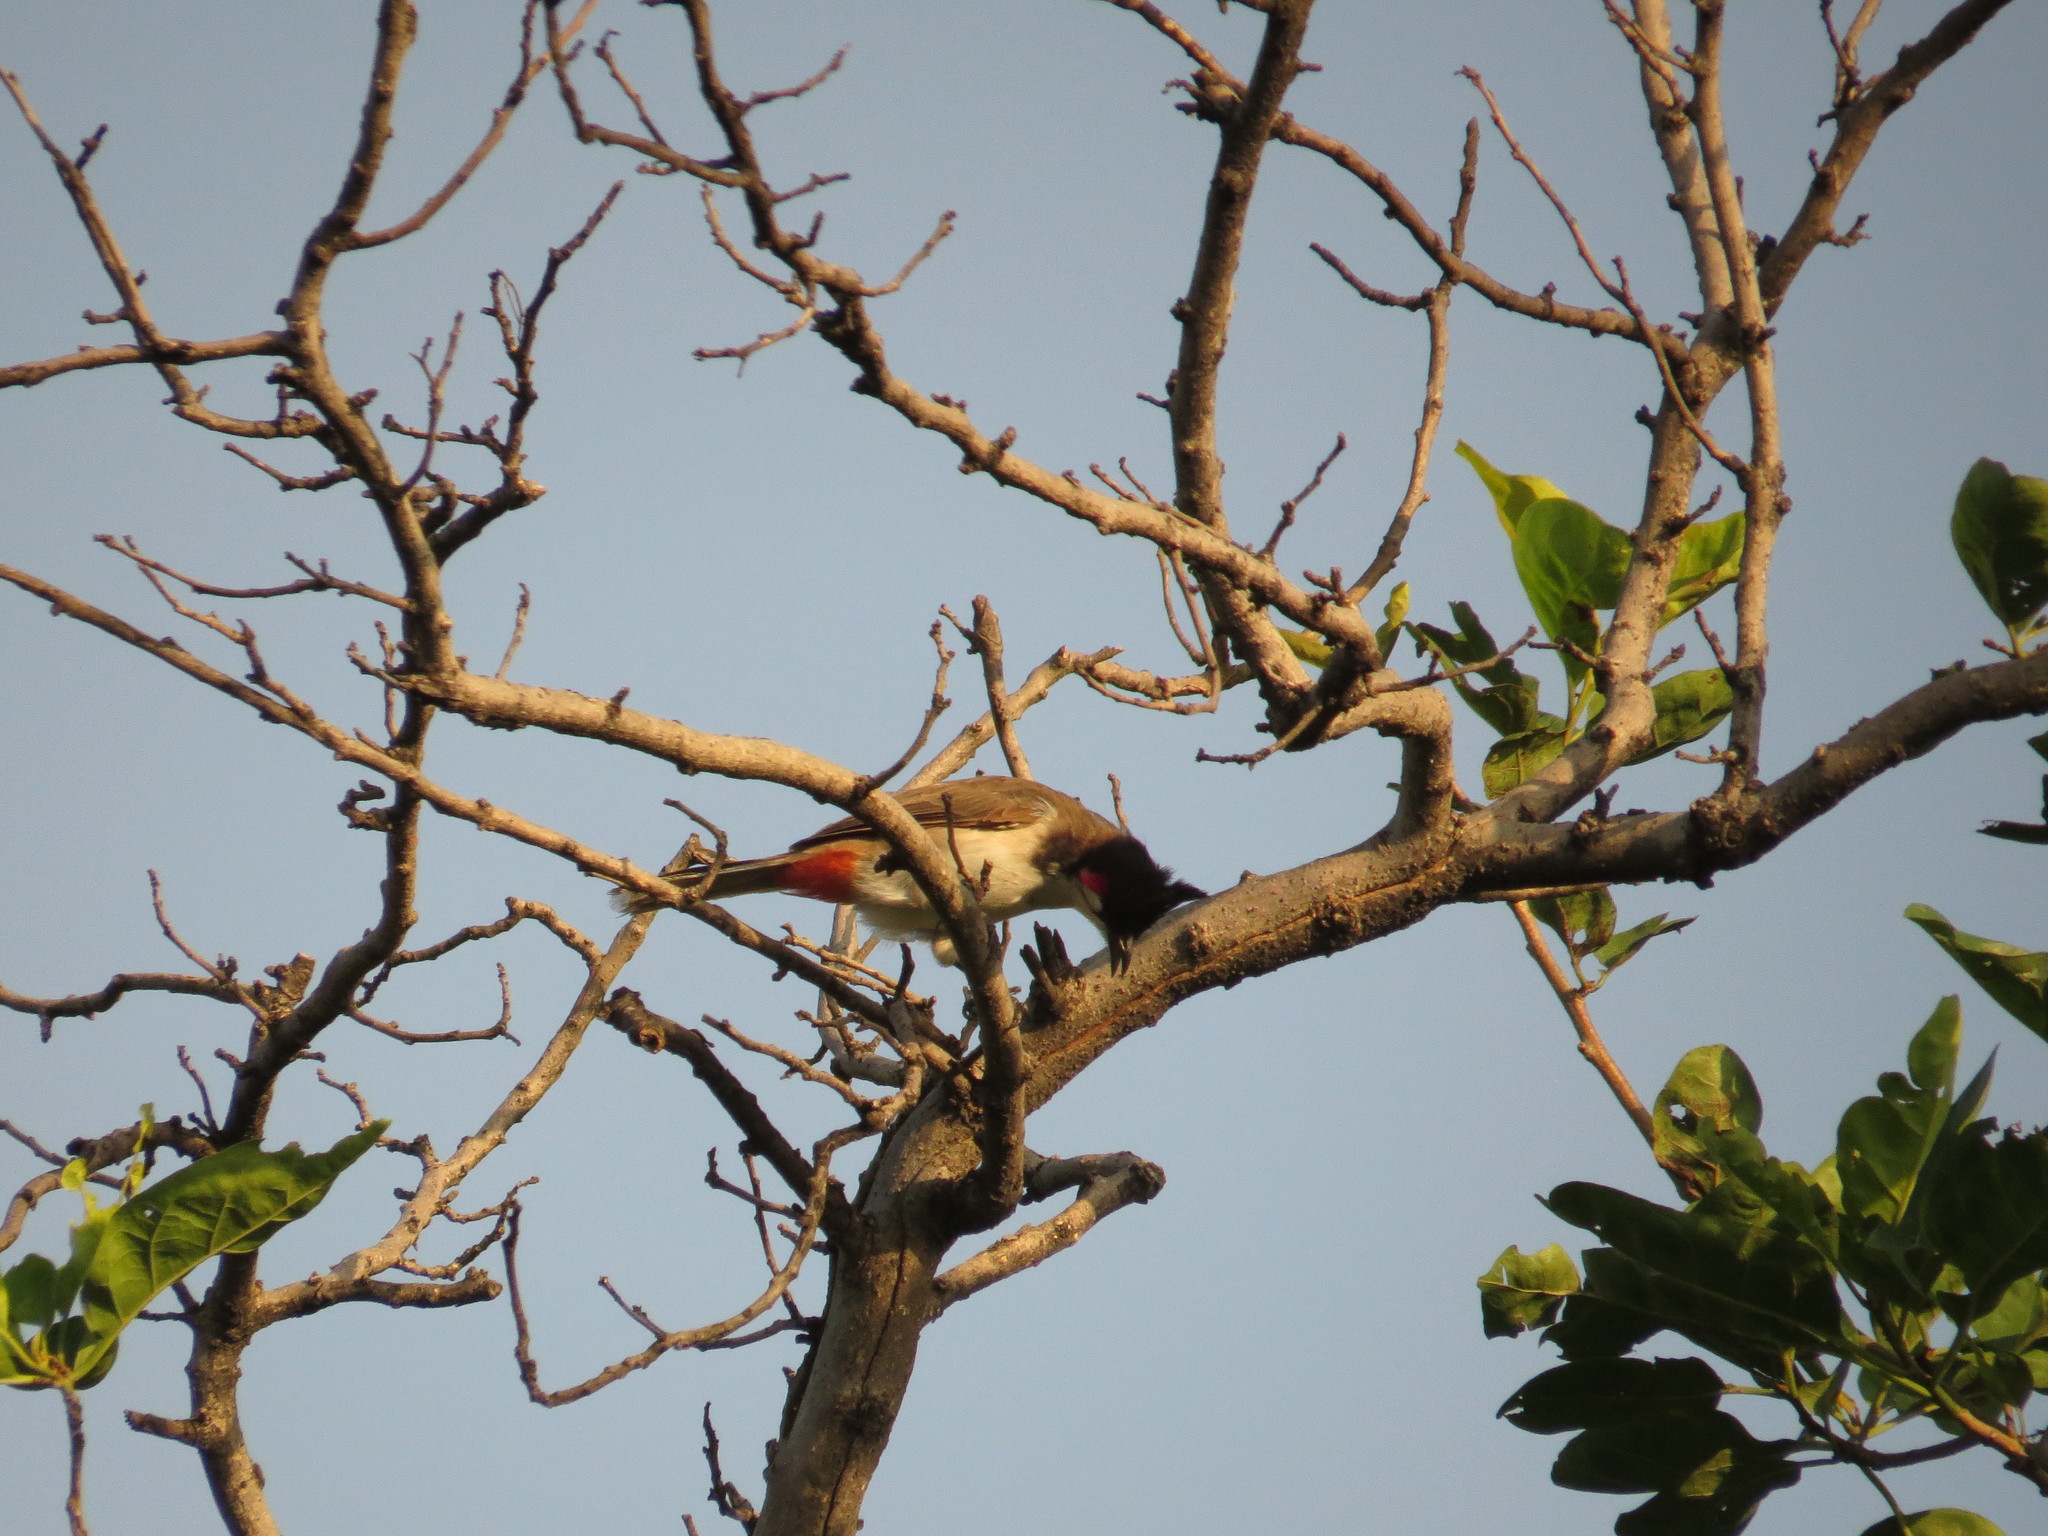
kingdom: Animalia
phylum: Chordata
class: Aves
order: Passeriformes
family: Pycnonotidae
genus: Pycnonotus
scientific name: Pycnonotus jocosus
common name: Red-whiskered bulbul
